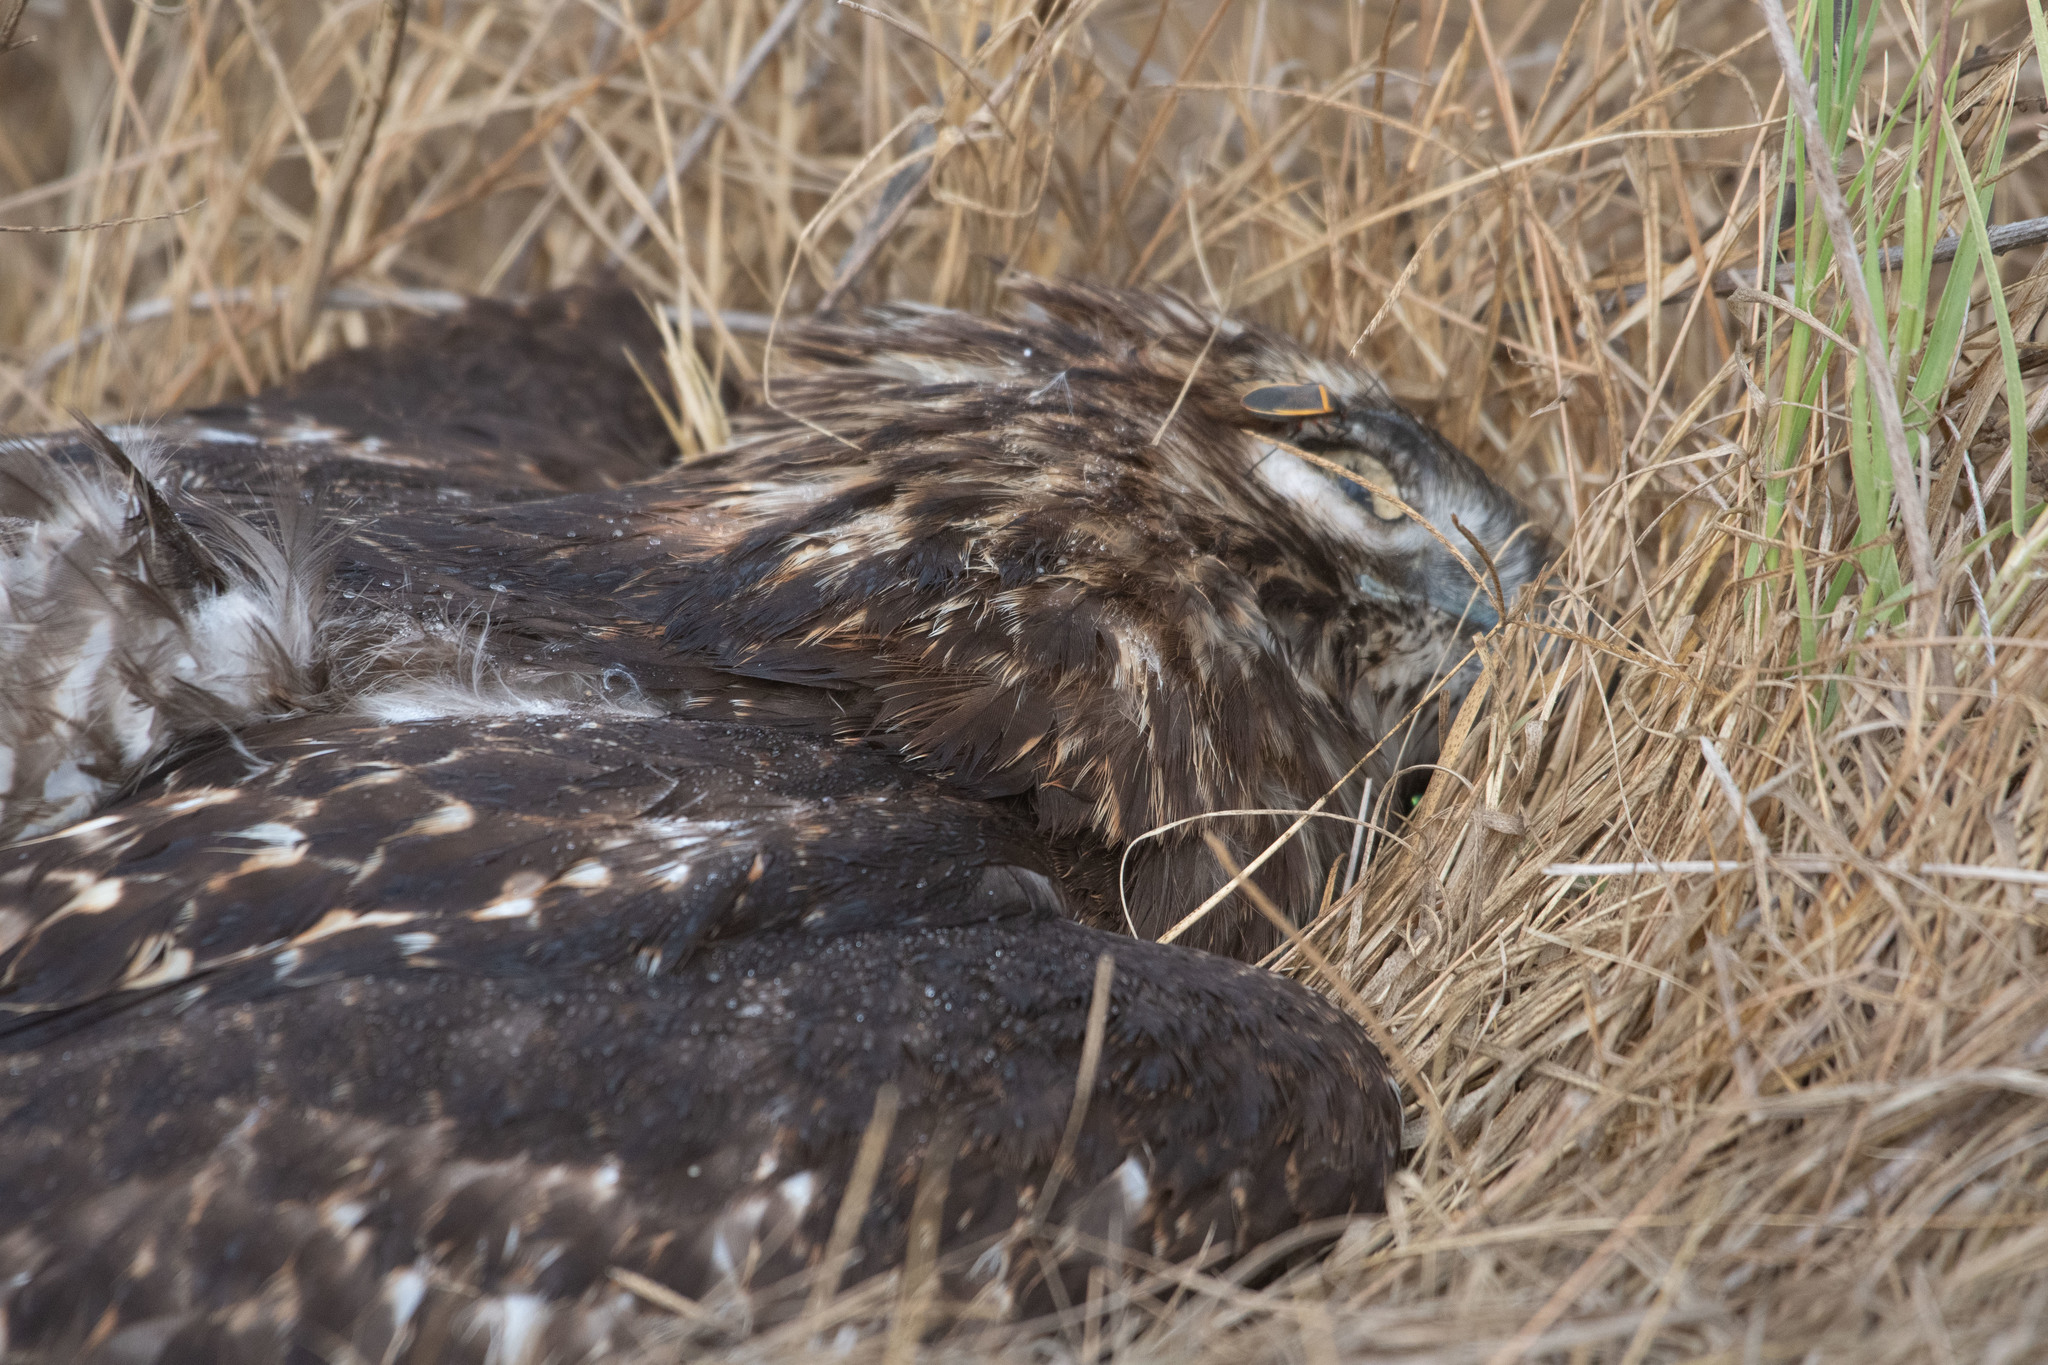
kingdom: Animalia
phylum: Chordata
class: Aves
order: Accipitriformes
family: Accipitridae
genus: Buteo
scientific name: Buteo jamaicensis
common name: Red-tailed hawk
